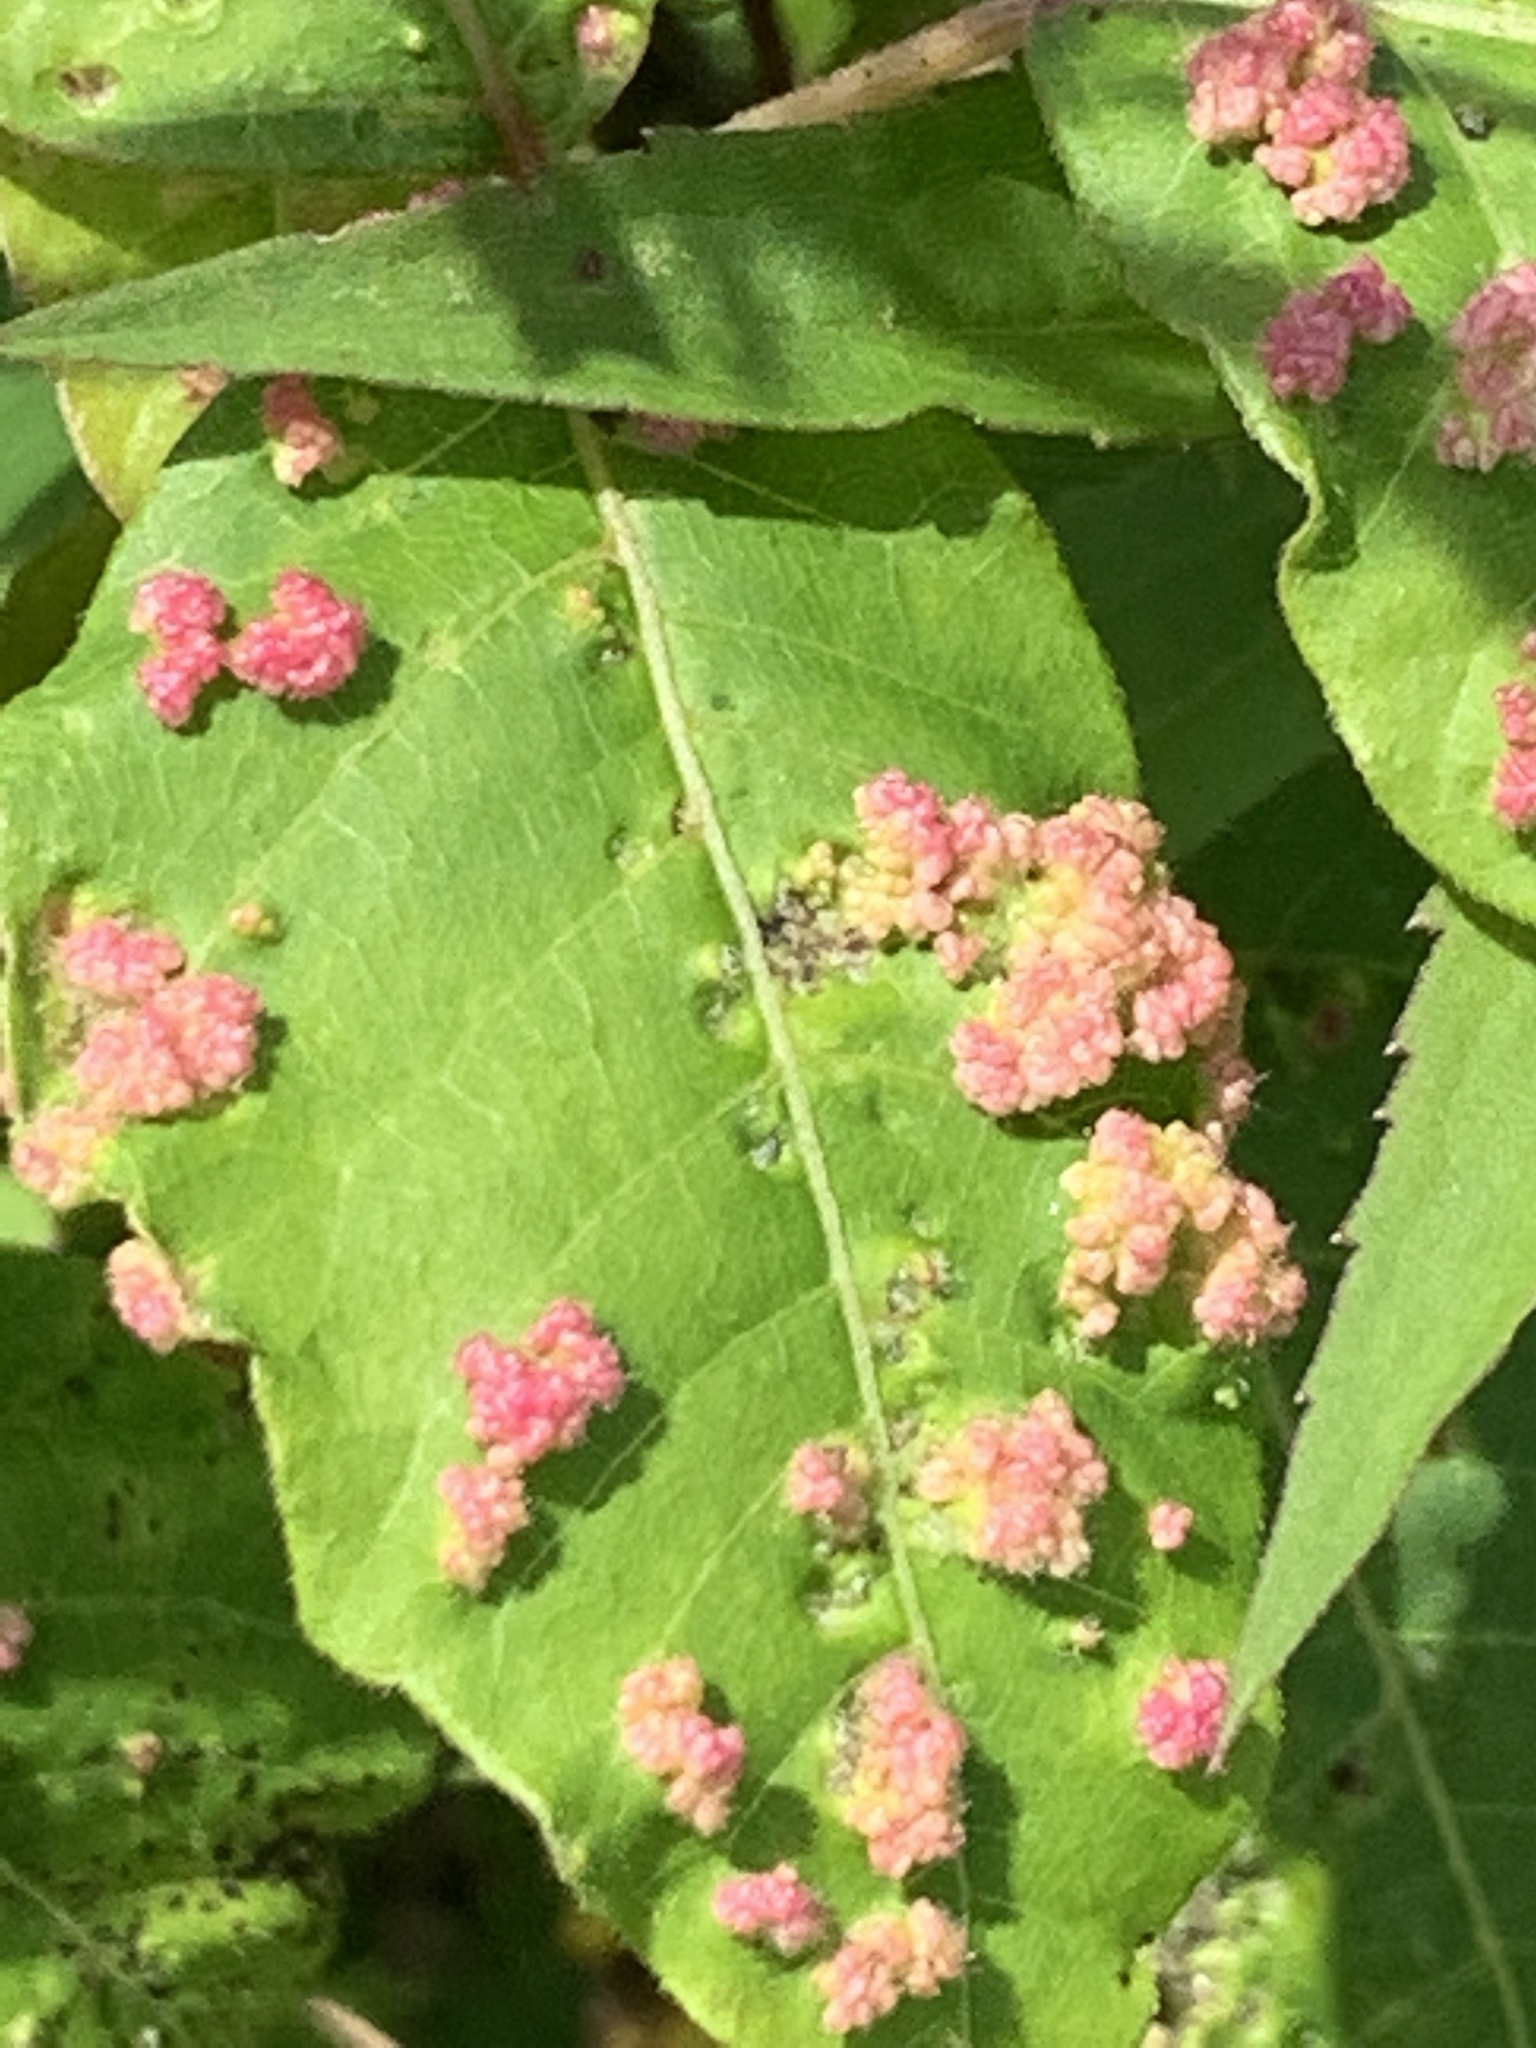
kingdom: Animalia
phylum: Arthropoda
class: Arachnida
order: Trombidiformes
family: Eriophyidae
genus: Aculops
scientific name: Aculops
